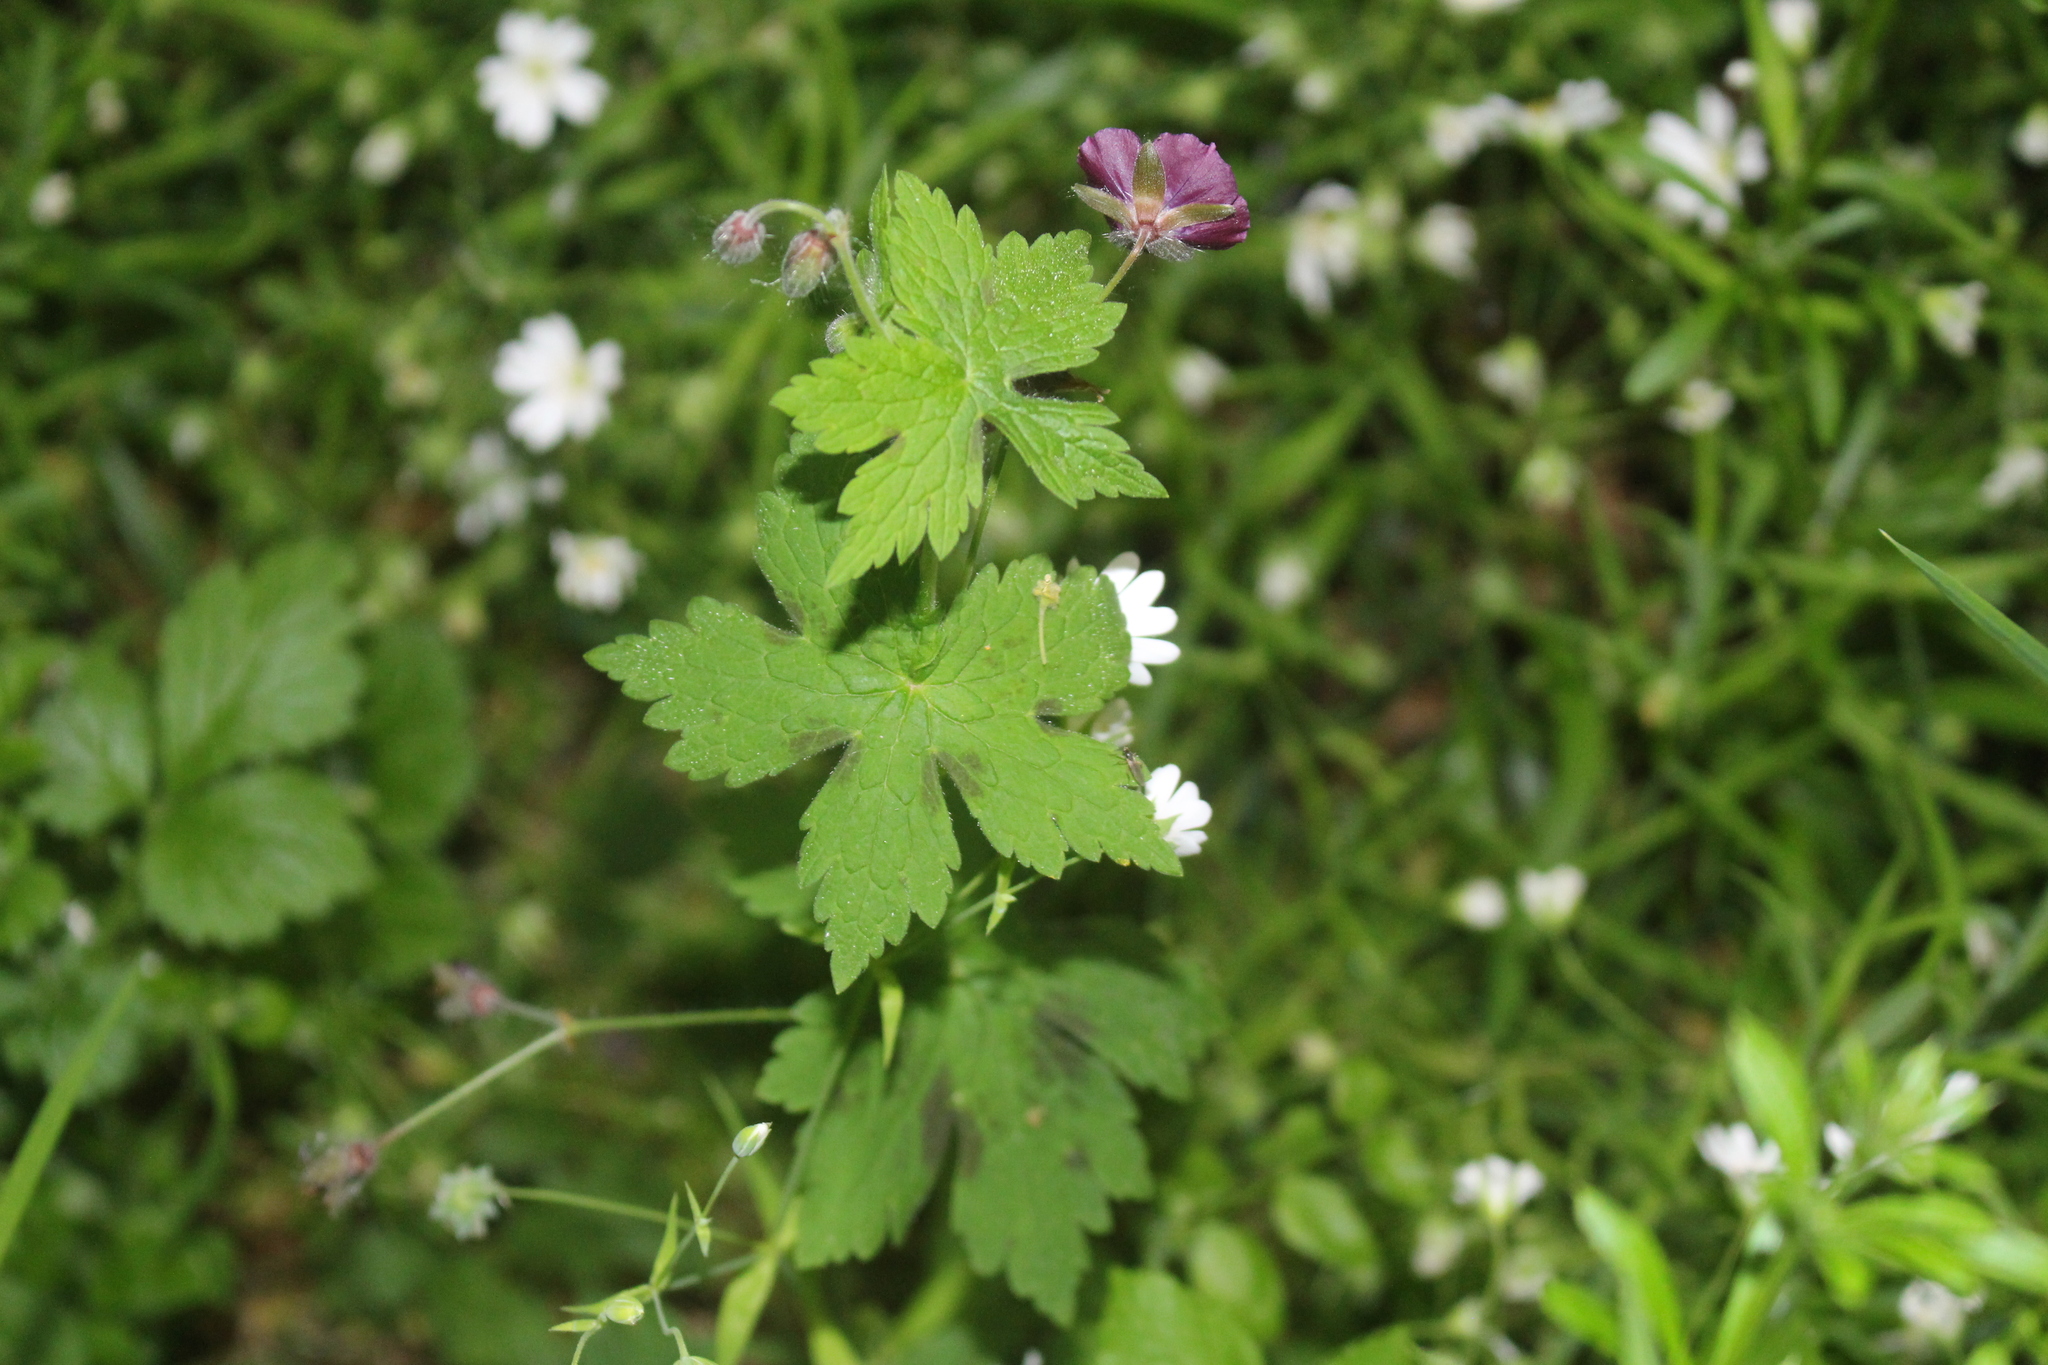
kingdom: Plantae
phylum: Tracheophyta
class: Magnoliopsida
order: Geraniales
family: Geraniaceae
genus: Geranium
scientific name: Geranium phaeum
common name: Dusky crane's-bill
